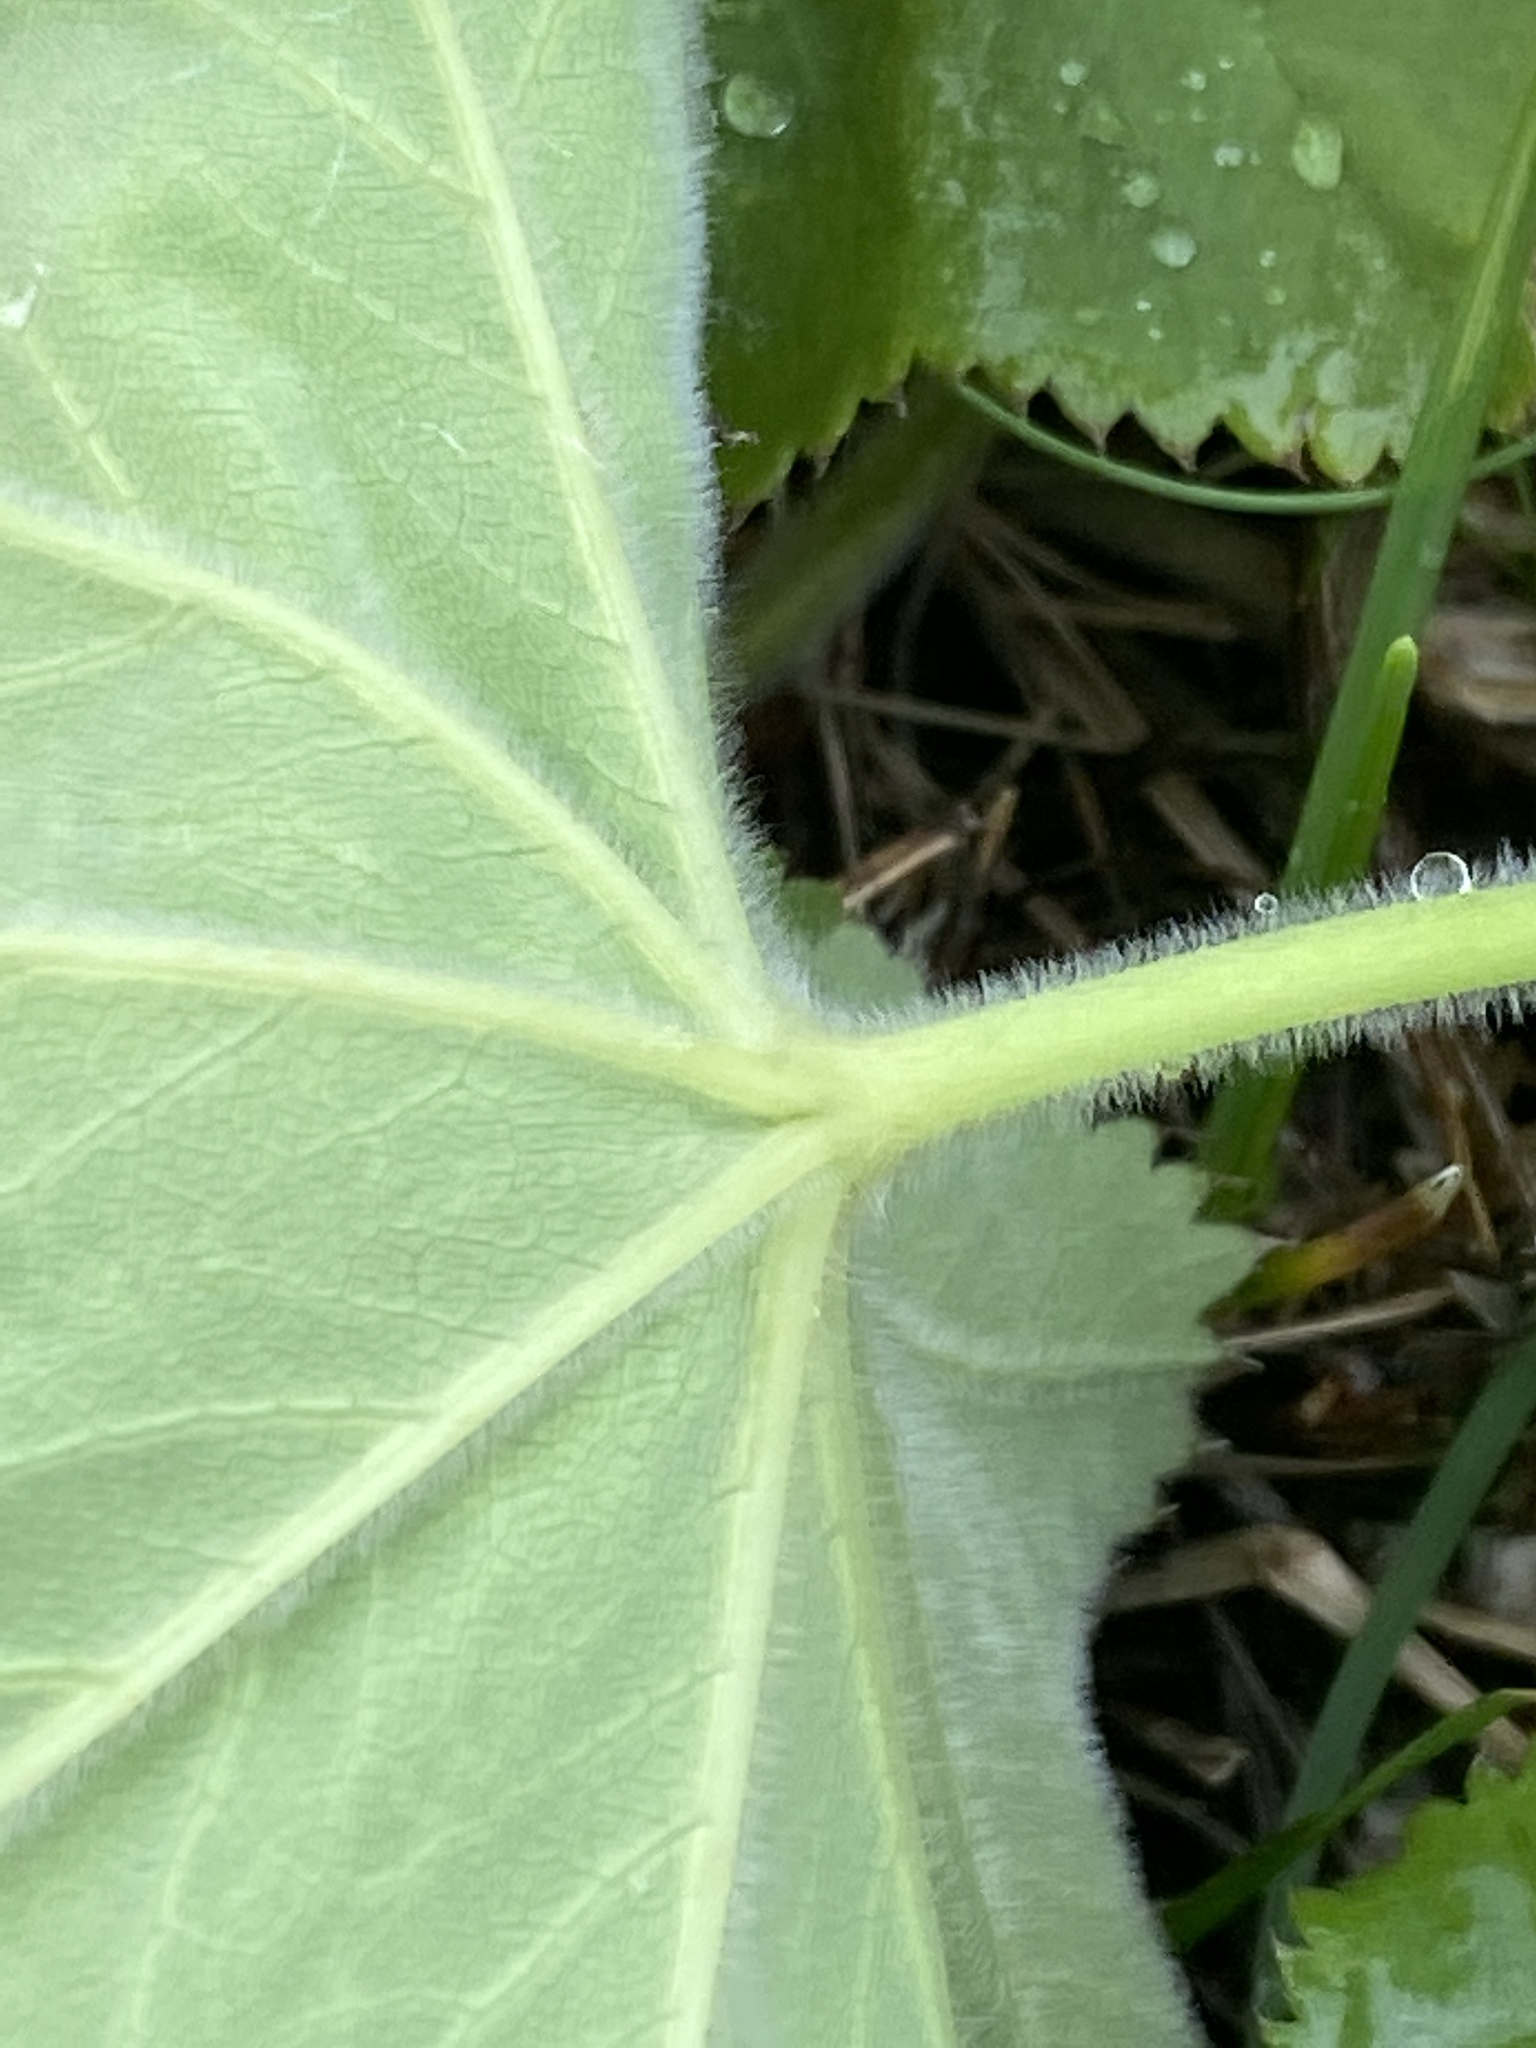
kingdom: Plantae
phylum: Tracheophyta
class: Magnoliopsida
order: Rosales
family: Rosaceae
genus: Alchemilla
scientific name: Alchemilla mollis
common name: Lady's-mantle
